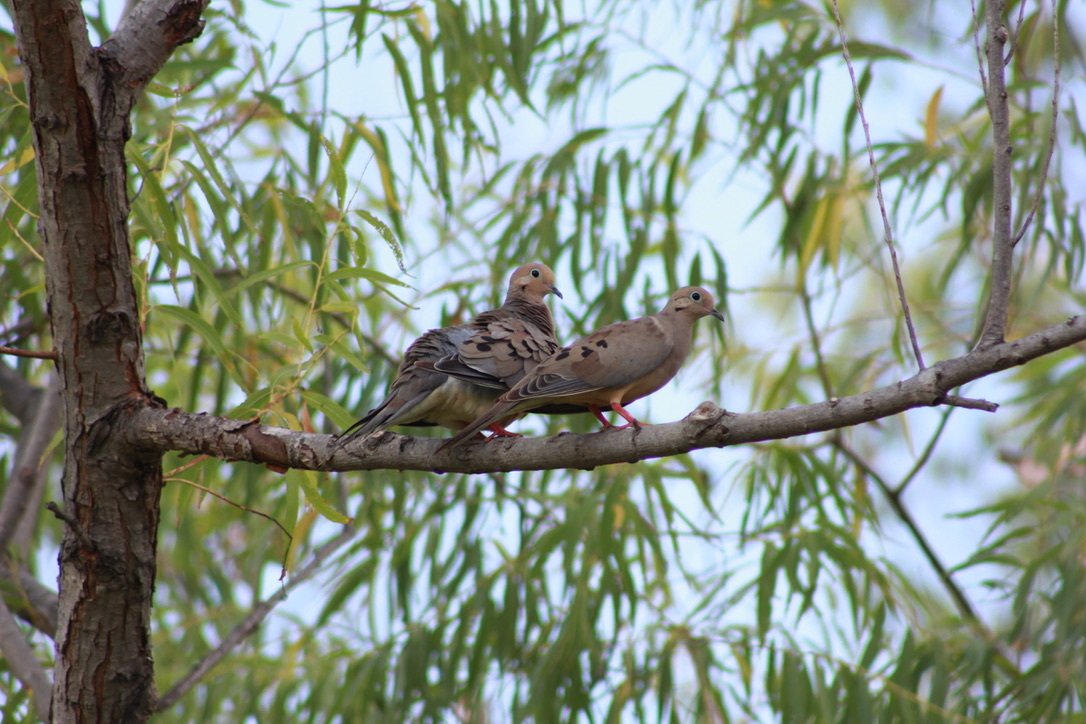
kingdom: Animalia
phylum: Chordata
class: Aves
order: Columbiformes
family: Columbidae
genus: Zenaida
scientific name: Zenaida macroura
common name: Mourning dove
